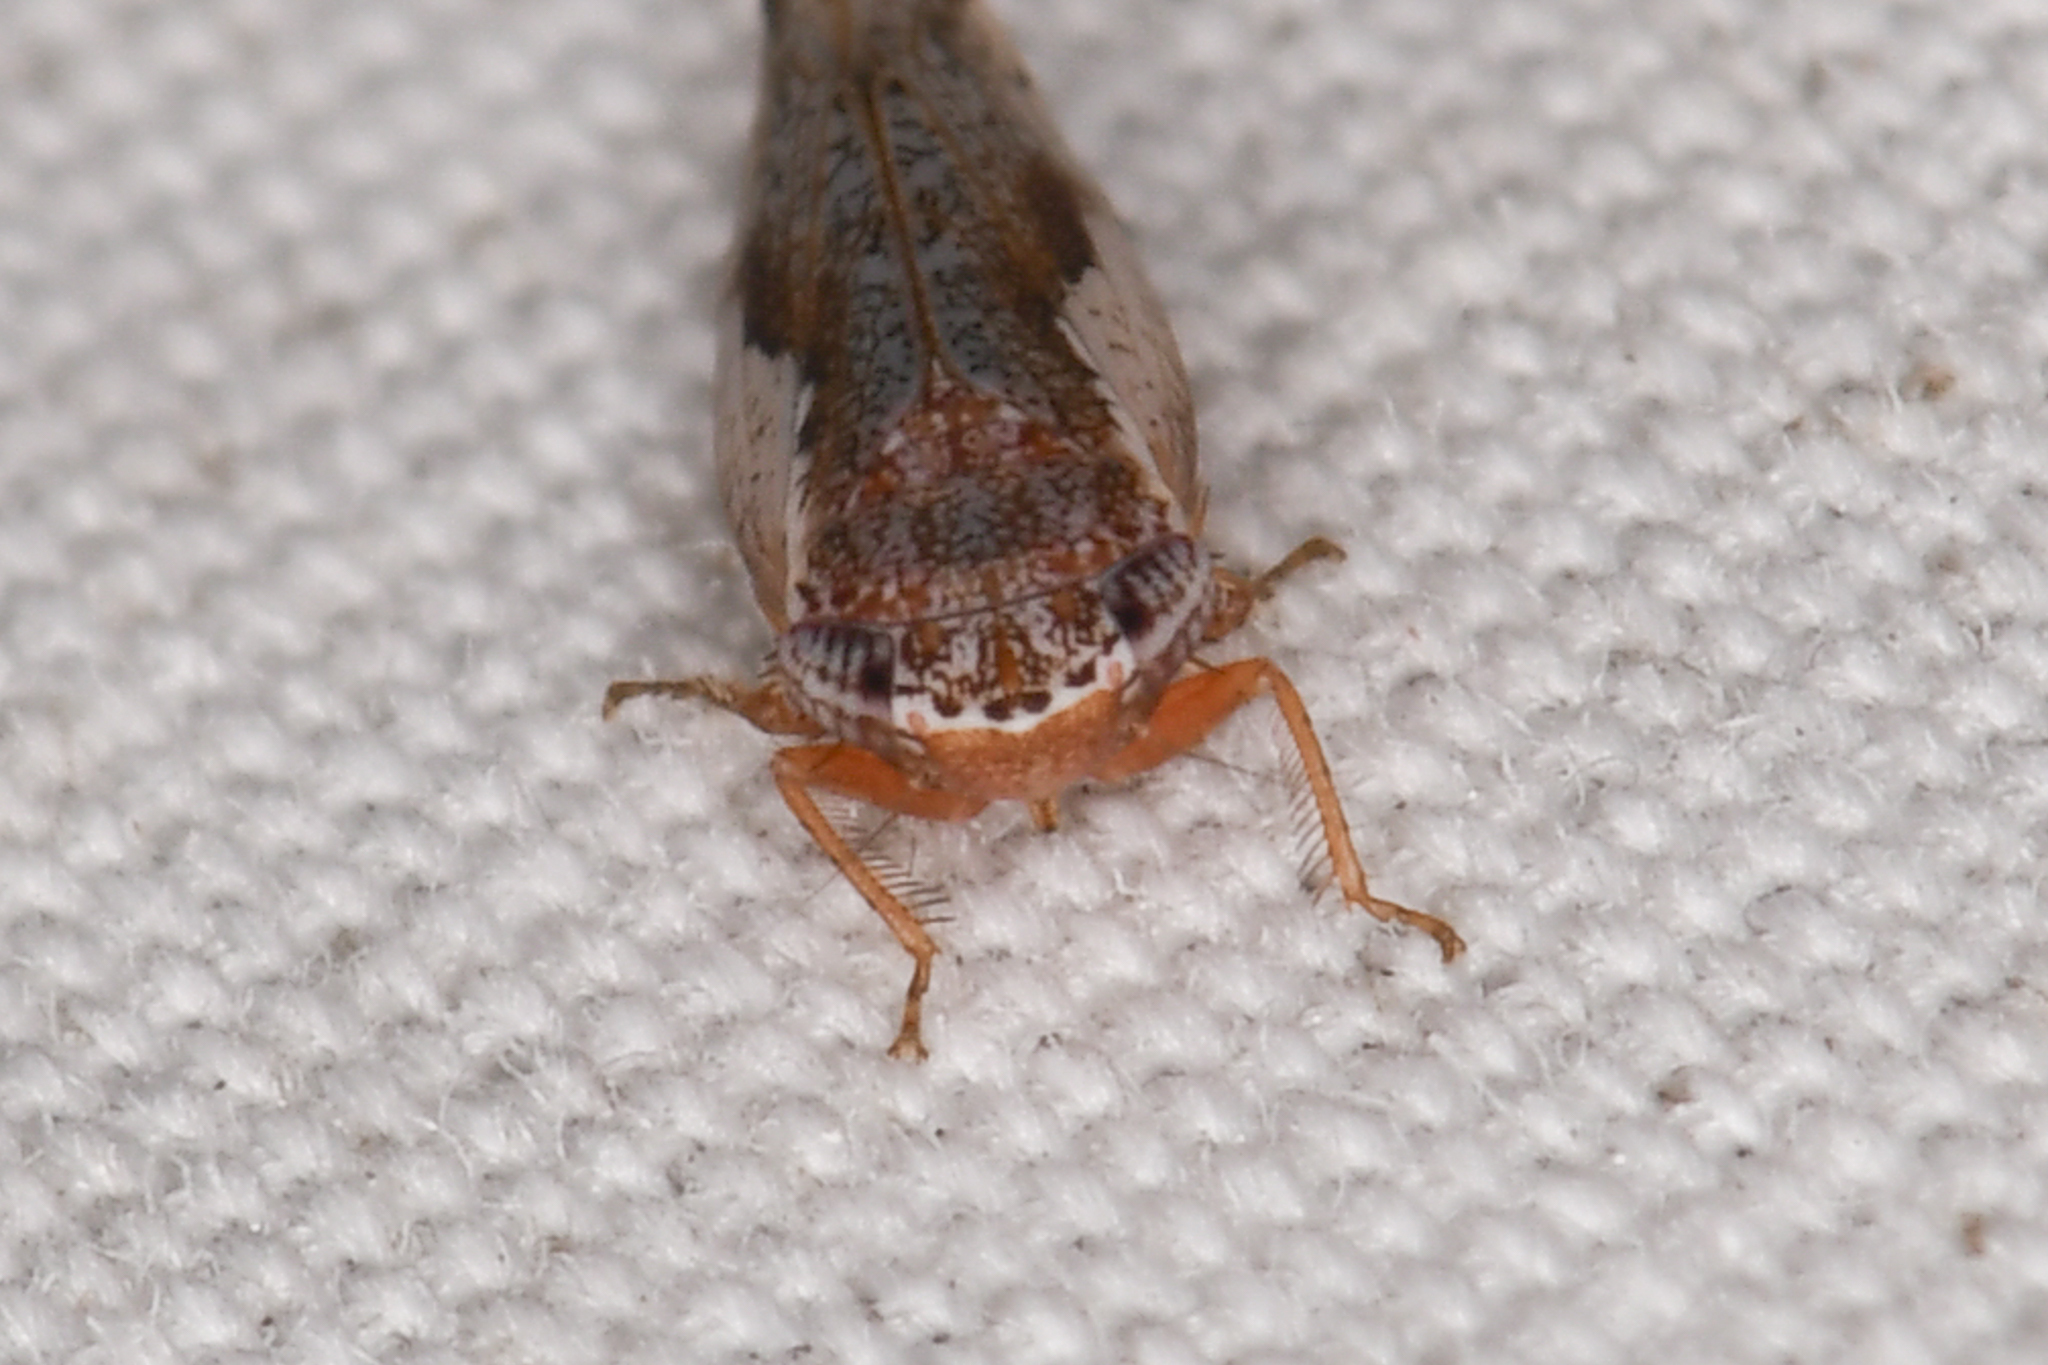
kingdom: Animalia
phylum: Arthropoda
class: Insecta
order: Hemiptera
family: Cicadellidae
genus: Norvellina
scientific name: Norvellina pannosa
